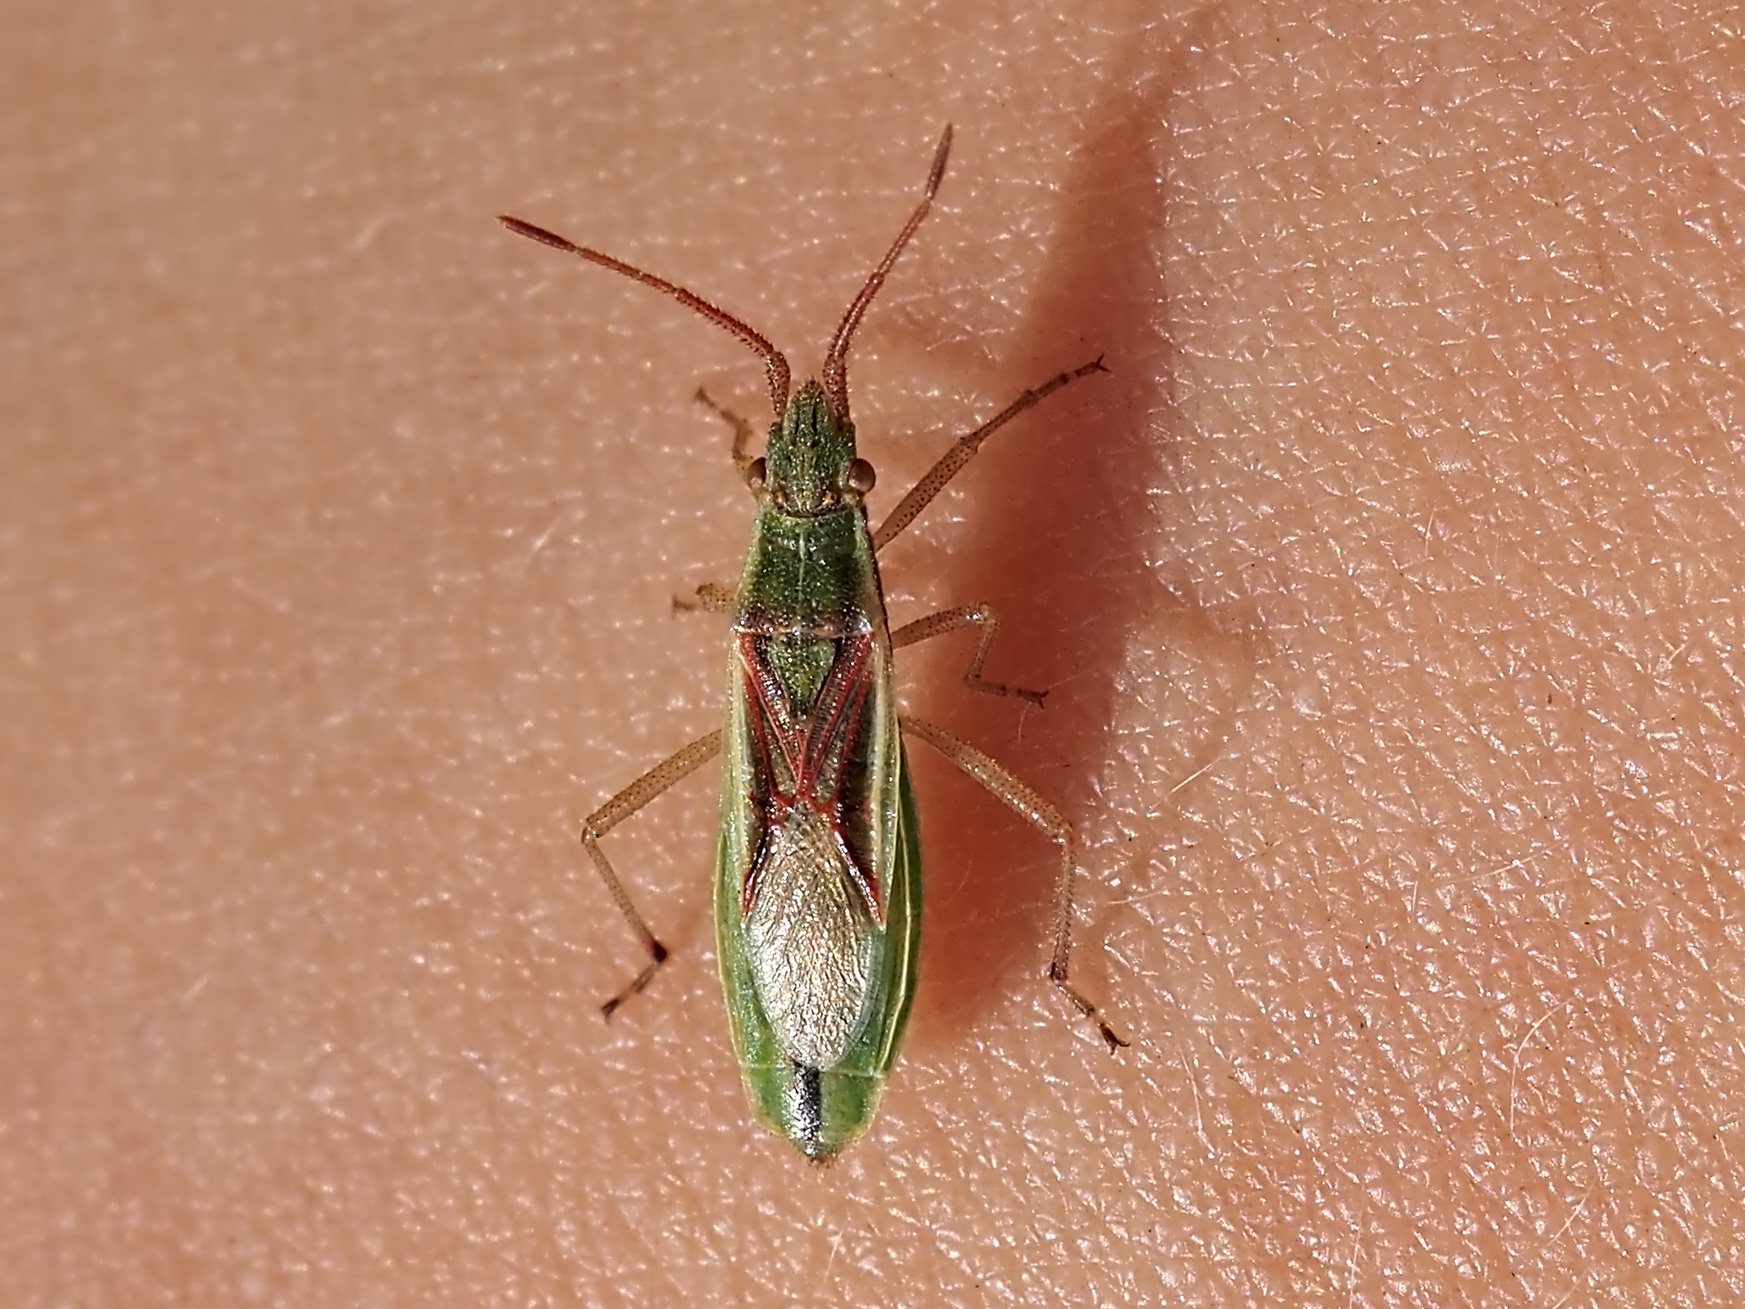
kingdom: Animalia
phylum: Arthropoda
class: Insecta
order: Hemiptera
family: Rhopalidae
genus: Myrmus
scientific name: Myrmus miriformis
